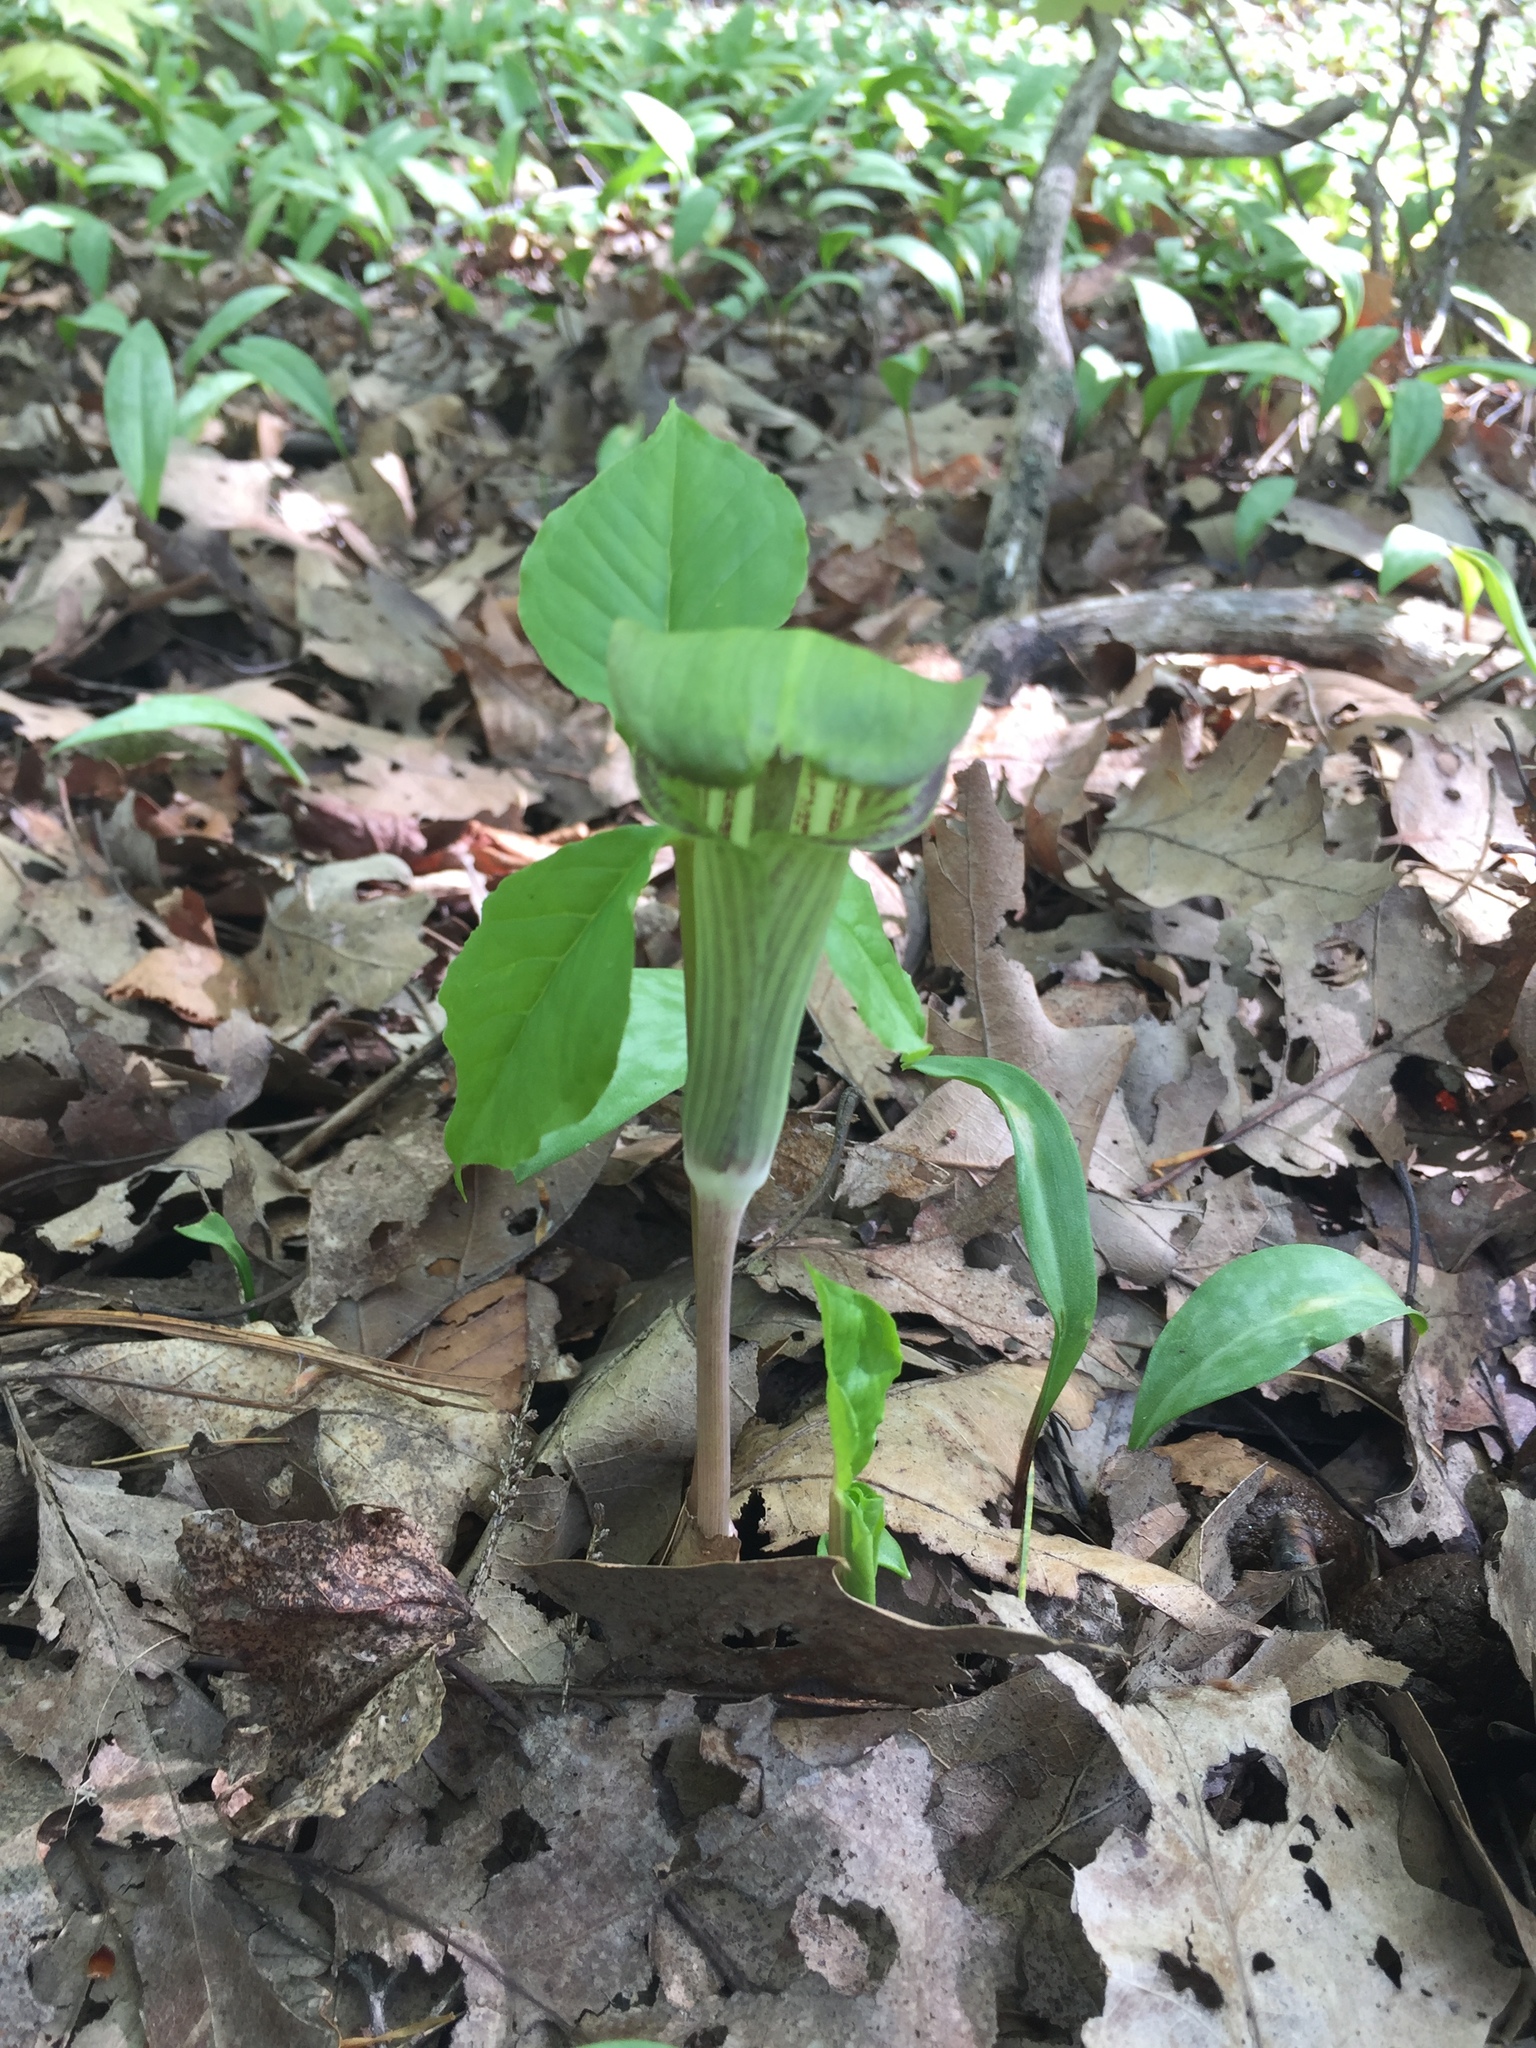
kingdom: Plantae
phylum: Tracheophyta
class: Liliopsida
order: Alismatales
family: Araceae
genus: Arisaema
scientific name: Arisaema triphyllum
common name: Jack-in-the-pulpit
